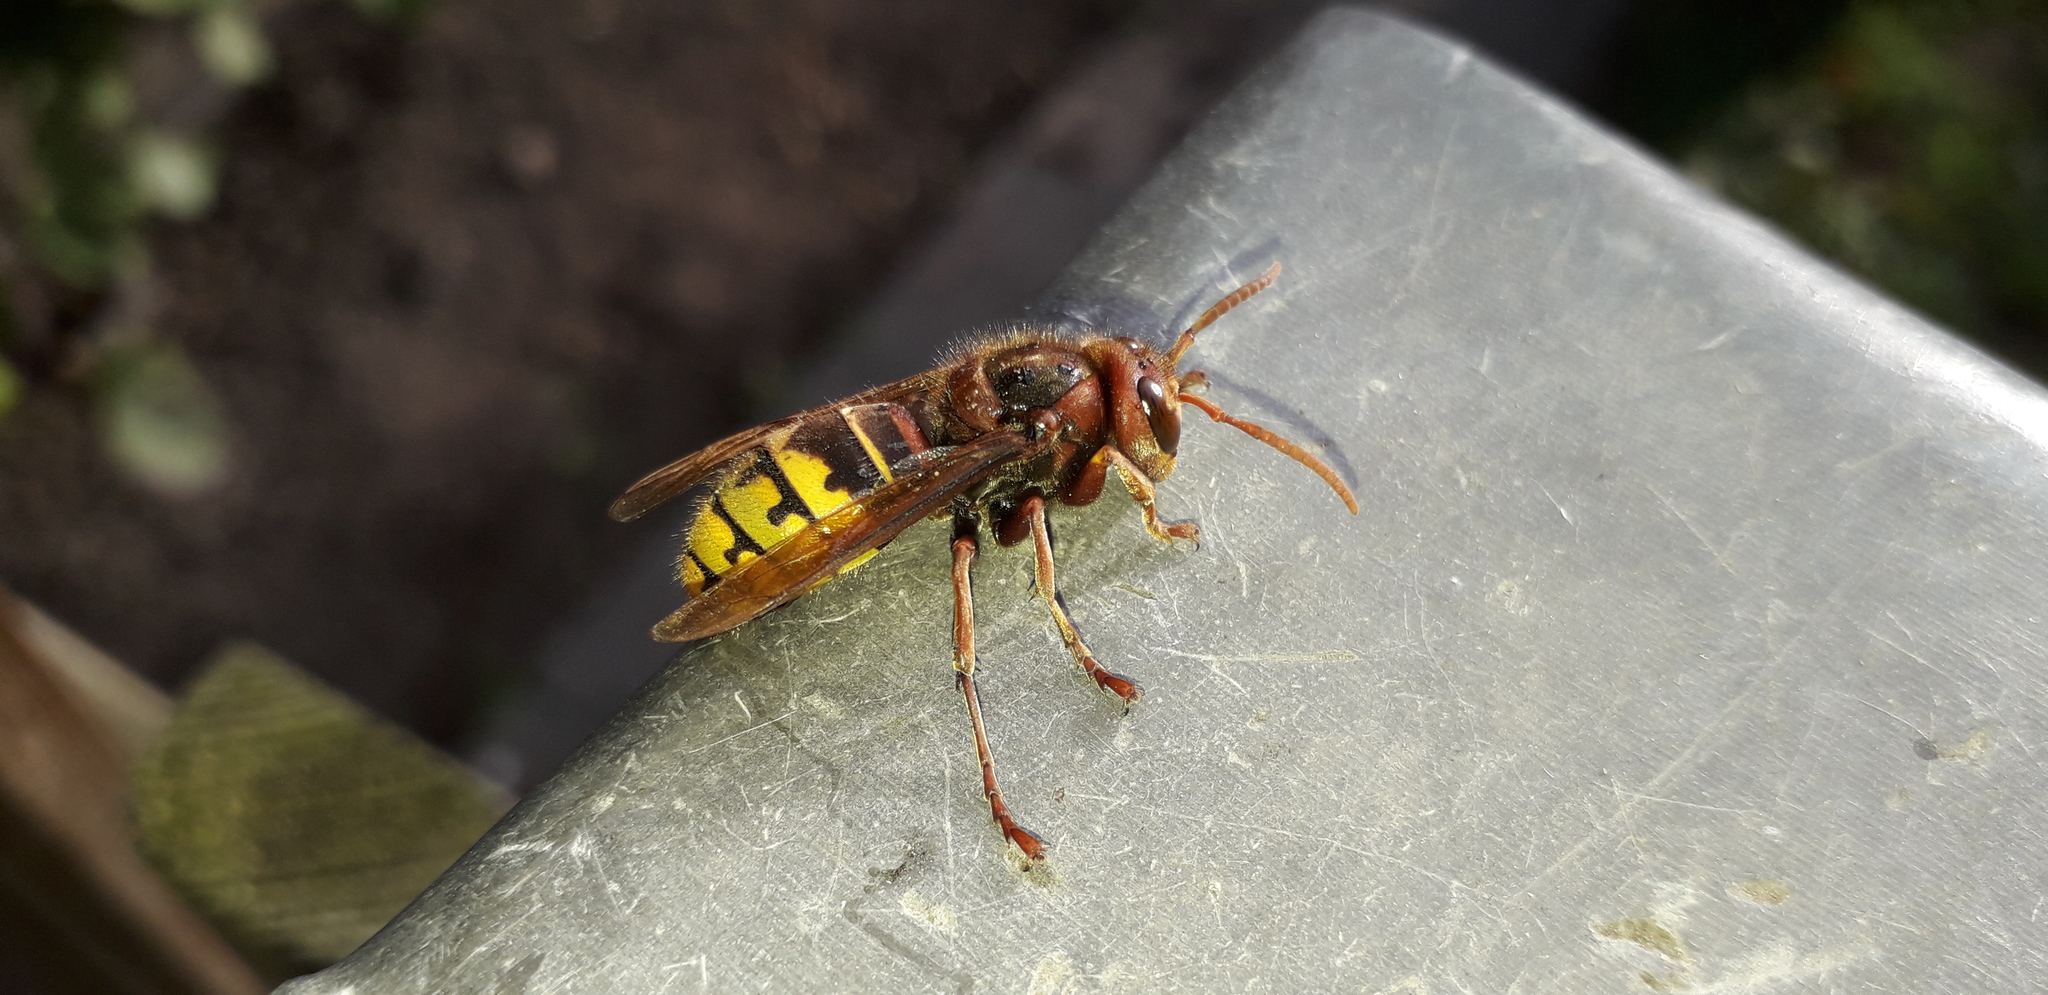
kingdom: Animalia
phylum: Arthropoda
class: Insecta
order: Hymenoptera
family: Vespidae
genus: Vespa
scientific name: Vespa crabro
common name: Hornet
